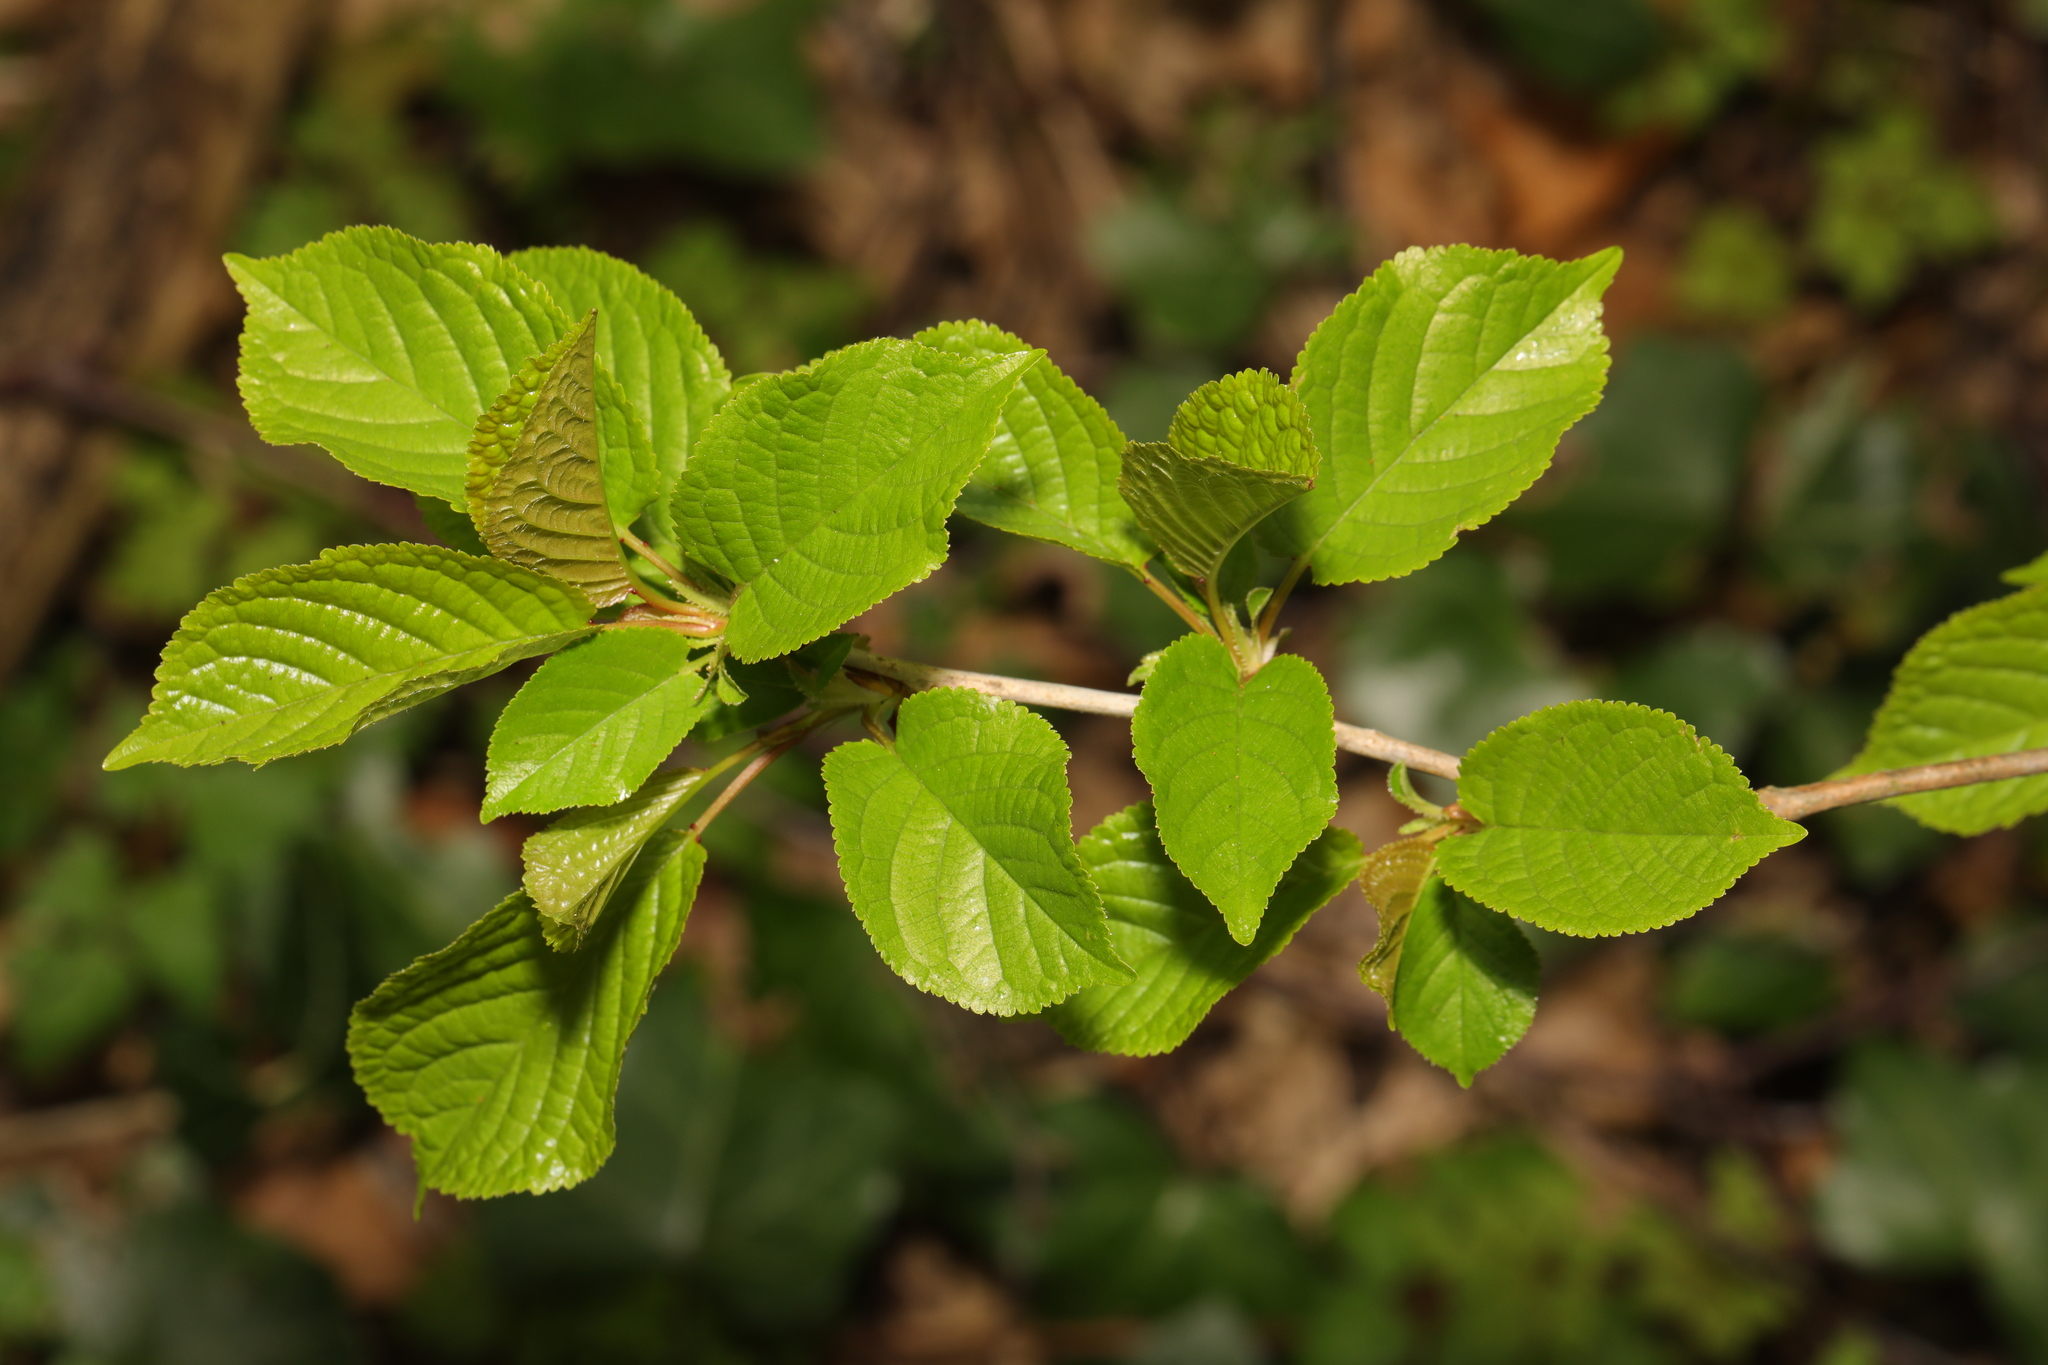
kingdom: Plantae
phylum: Tracheophyta
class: Magnoliopsida
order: Rosales
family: Rosaceae
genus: Prunus
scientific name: Prunus avium
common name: Sweet cherry
